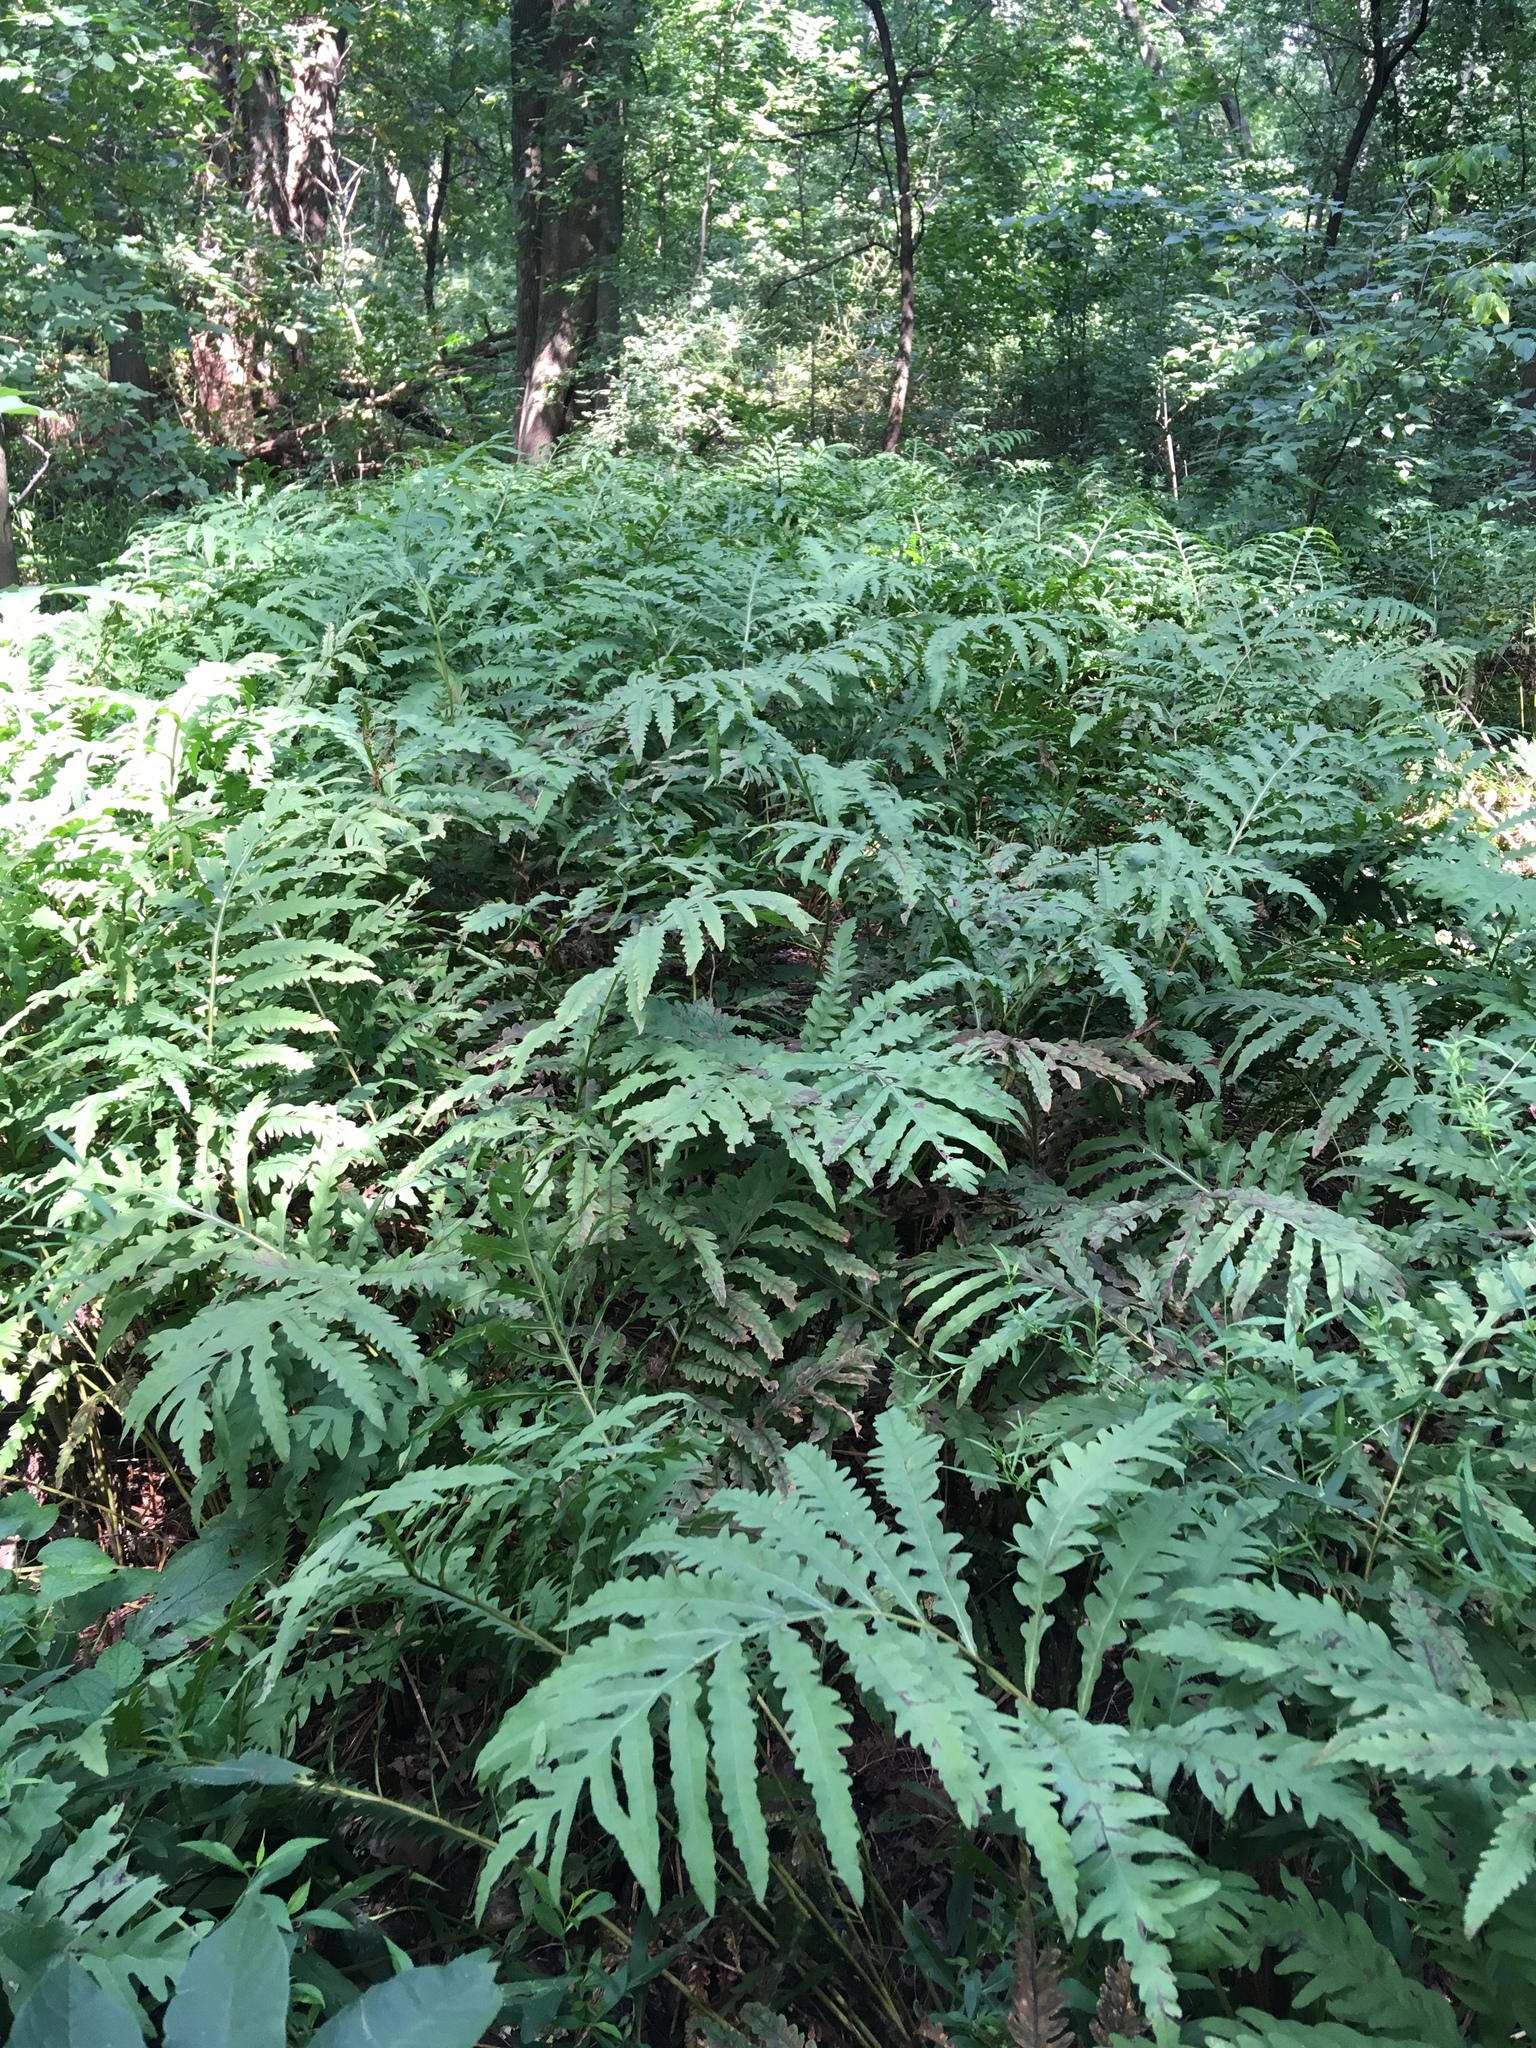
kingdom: Plantae
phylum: Tracheophyta
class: Polypodiopsida
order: Polypodiales
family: Onocleaceae
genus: Onoclea
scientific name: Onoclea sensibilis
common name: Sensitive fern
